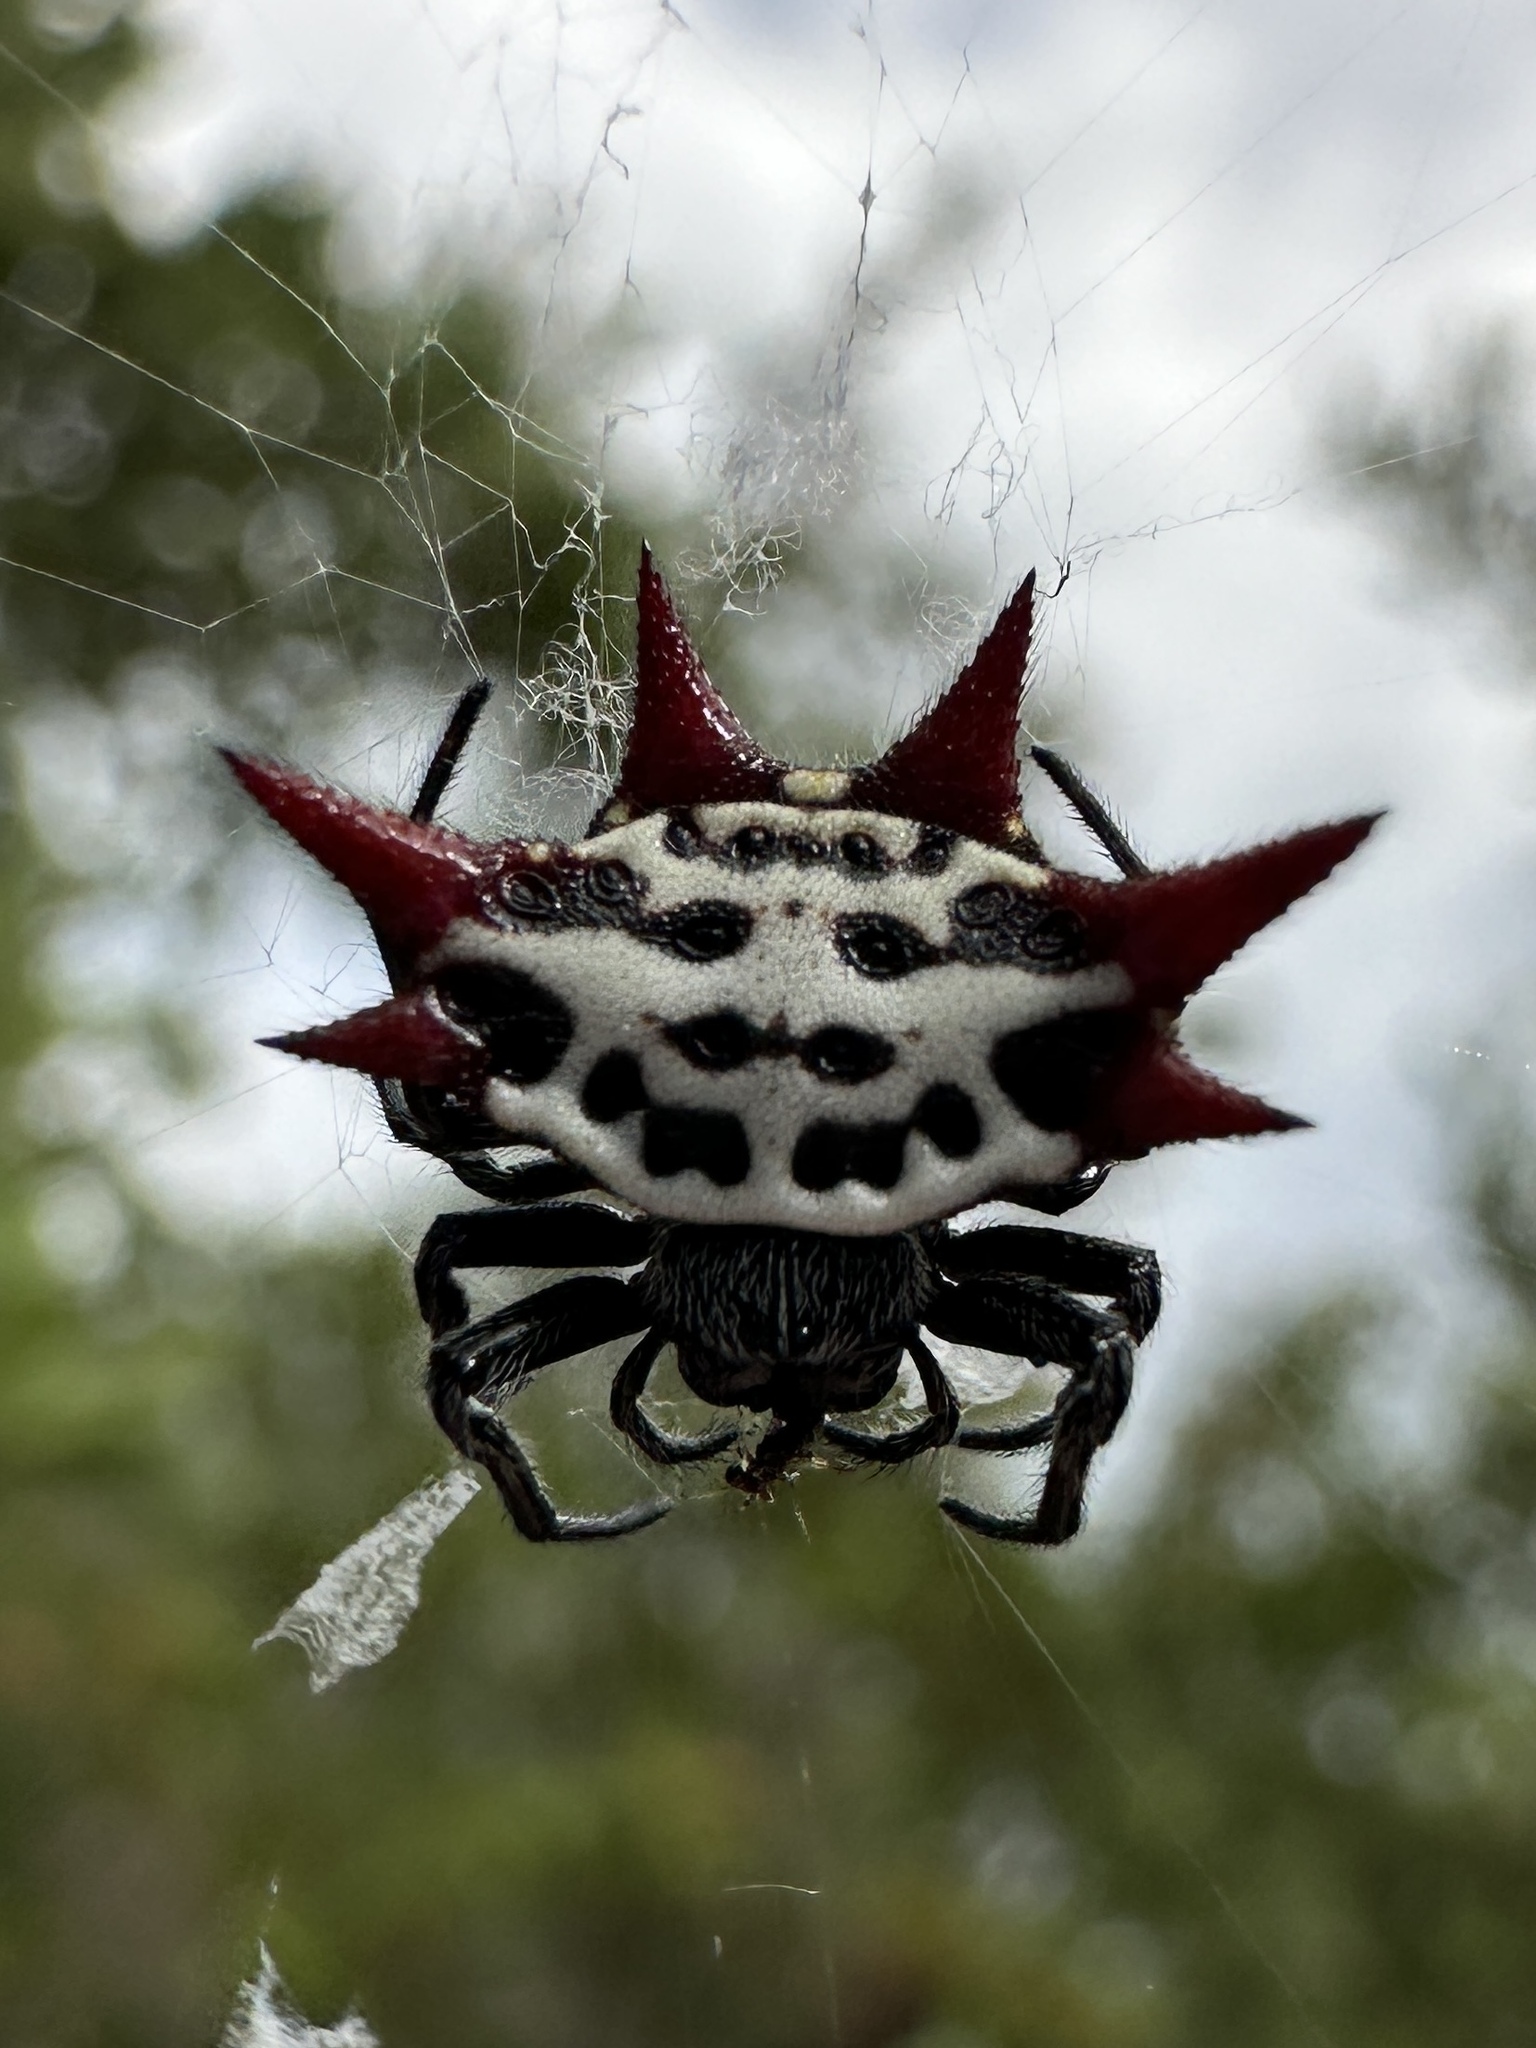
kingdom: Animalia
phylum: Arthropoda
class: Arachnida
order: Araneae
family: Araneidae
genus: Gasteracantha
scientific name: Gasteracantha cancriformis
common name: Orb weavers
